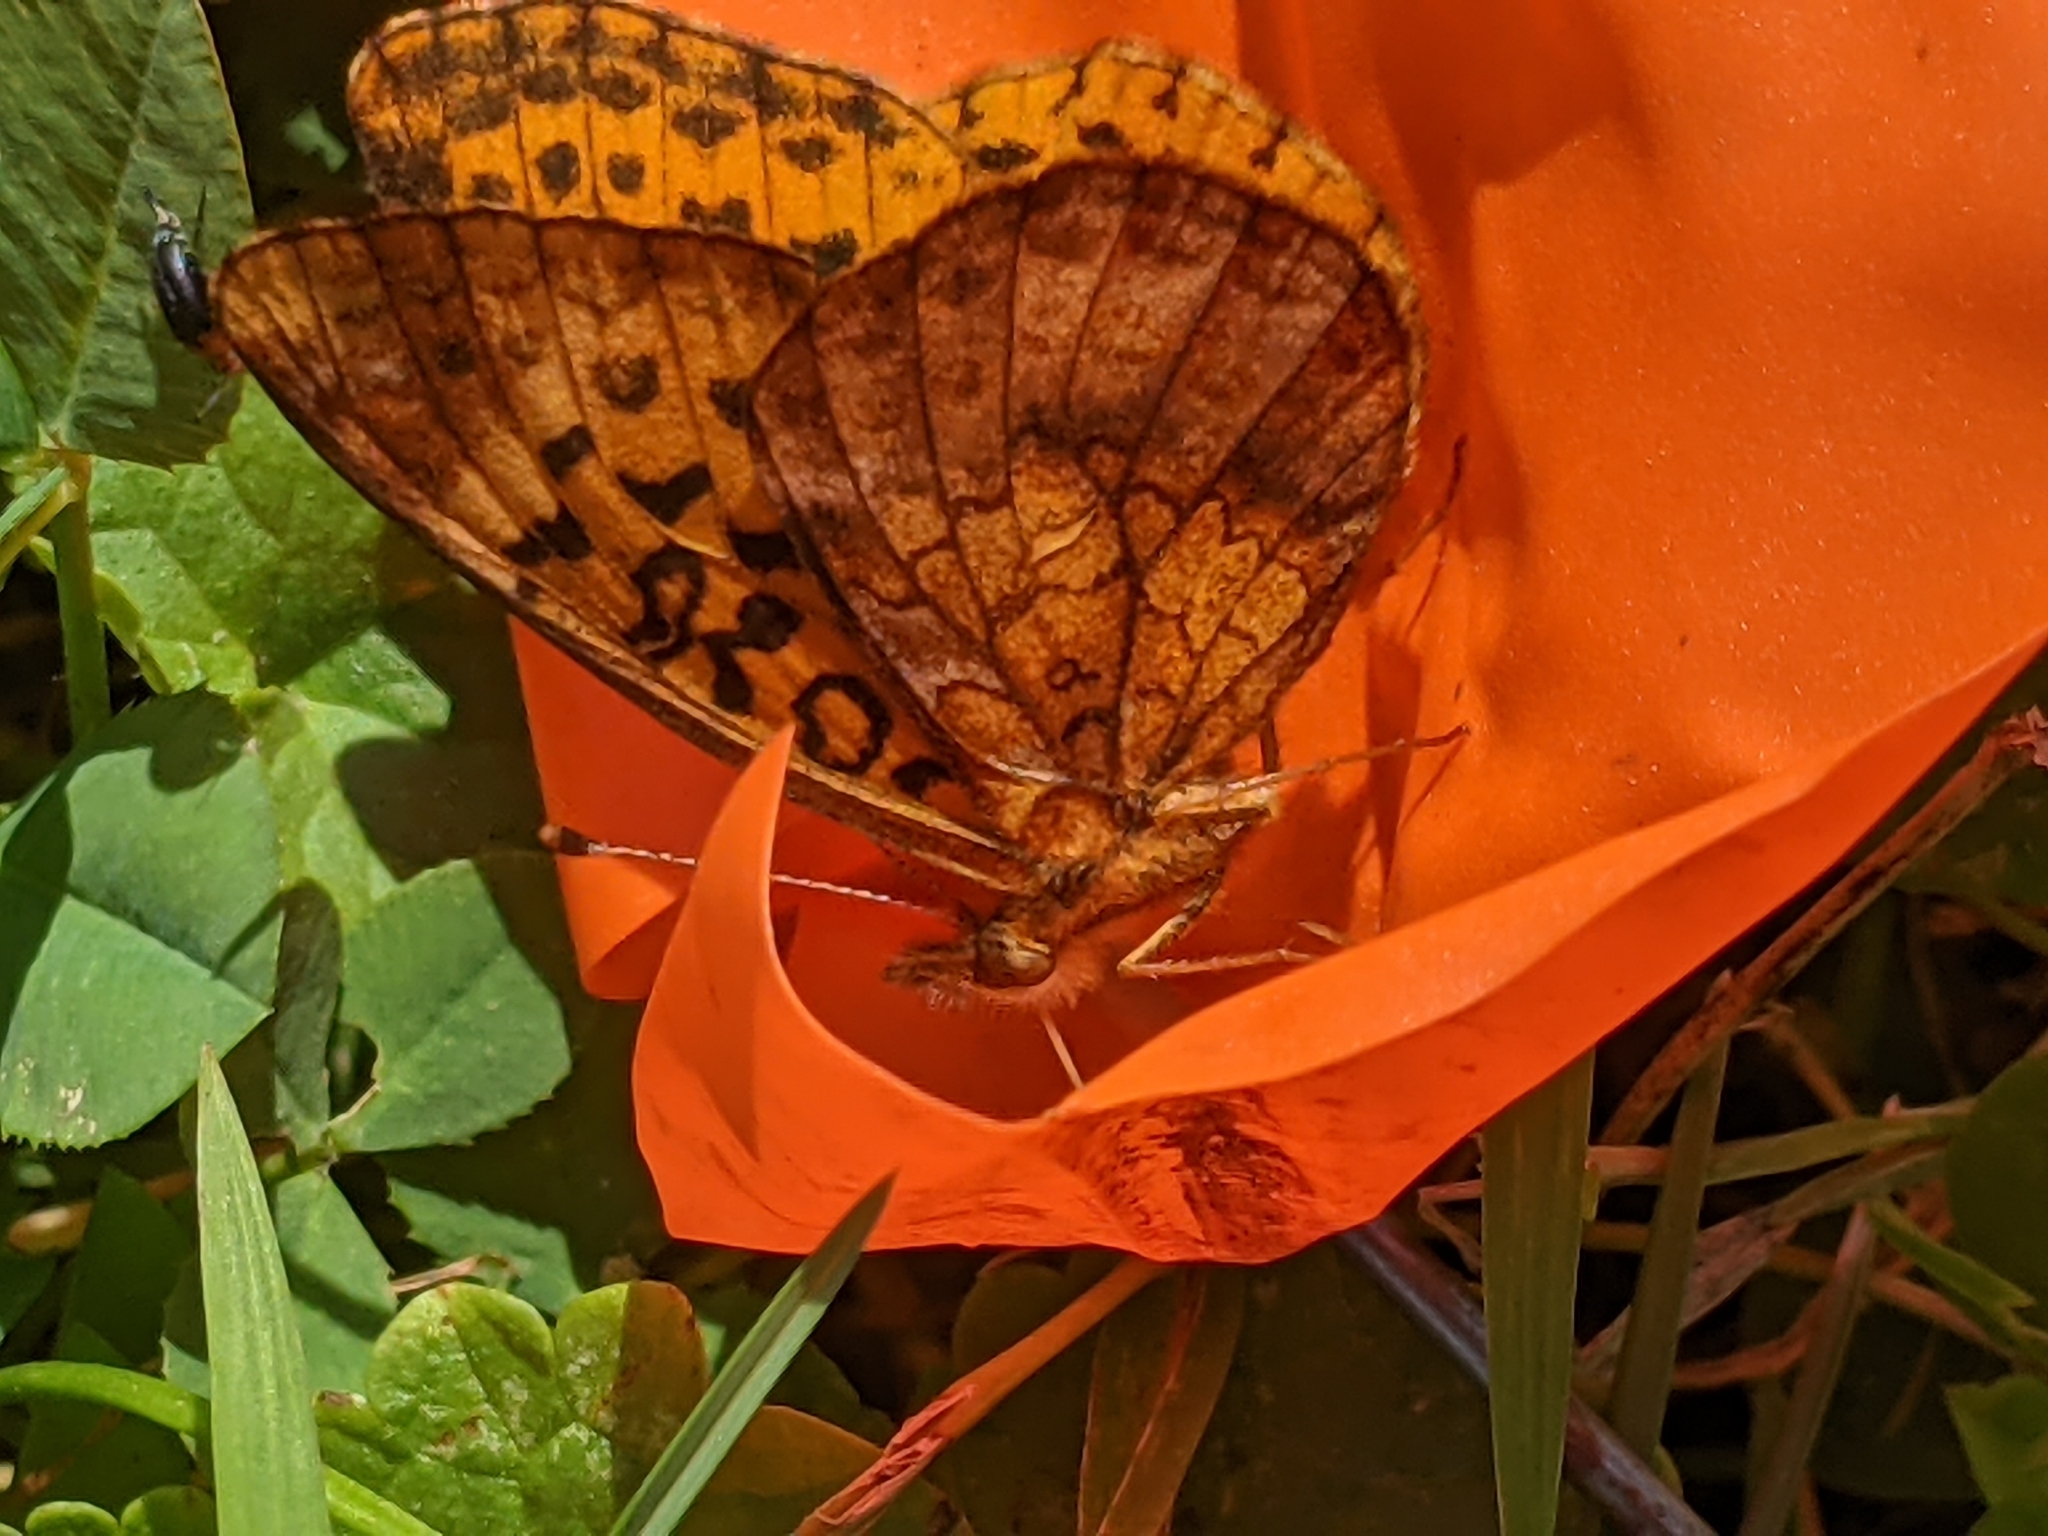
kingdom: Animalia
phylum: Arthropoda
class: Insecta
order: Lepidoptera
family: Nymphalidae
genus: Clossiana
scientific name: Clossiana toddi
